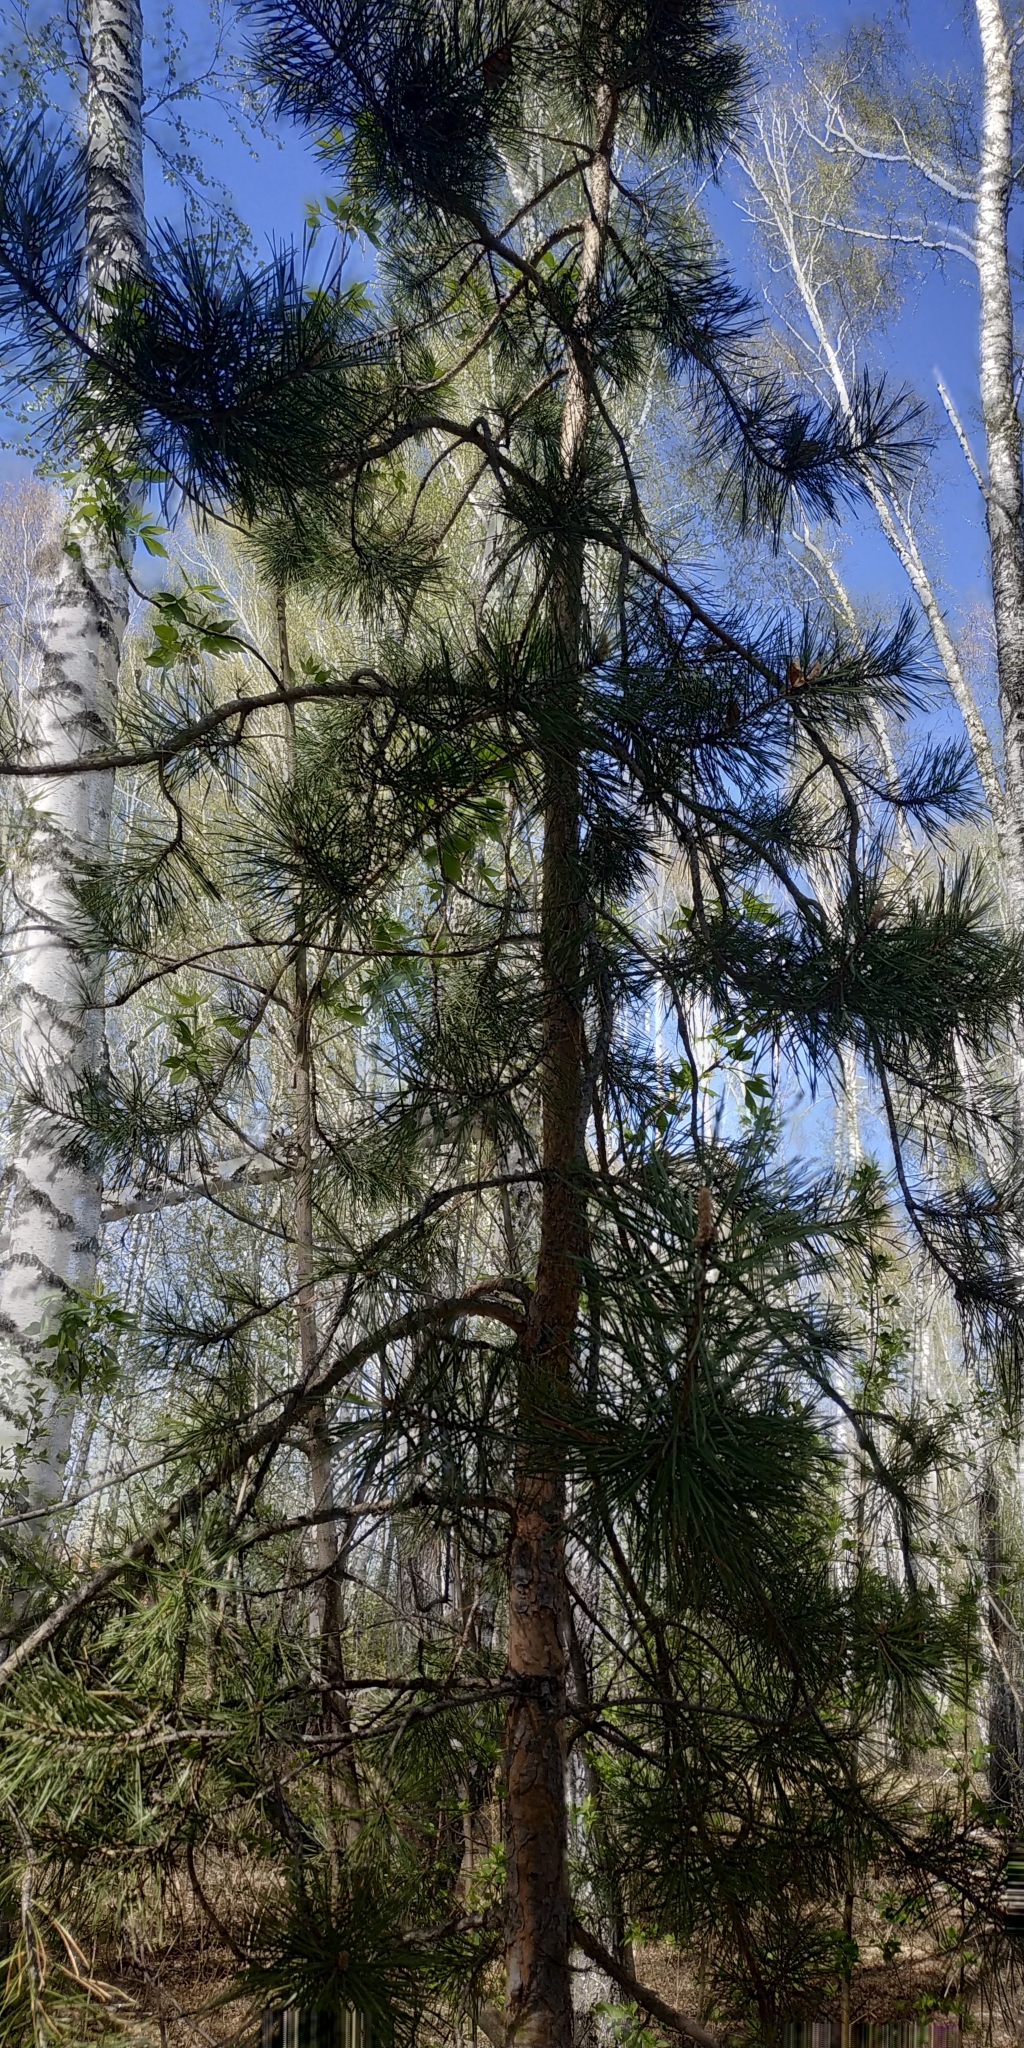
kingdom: Plantae
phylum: Tracheophyta
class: Pinopsida
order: Pinales
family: Pinaceae
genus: Pinus
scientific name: Pinus sylvestris
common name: Scots pine
